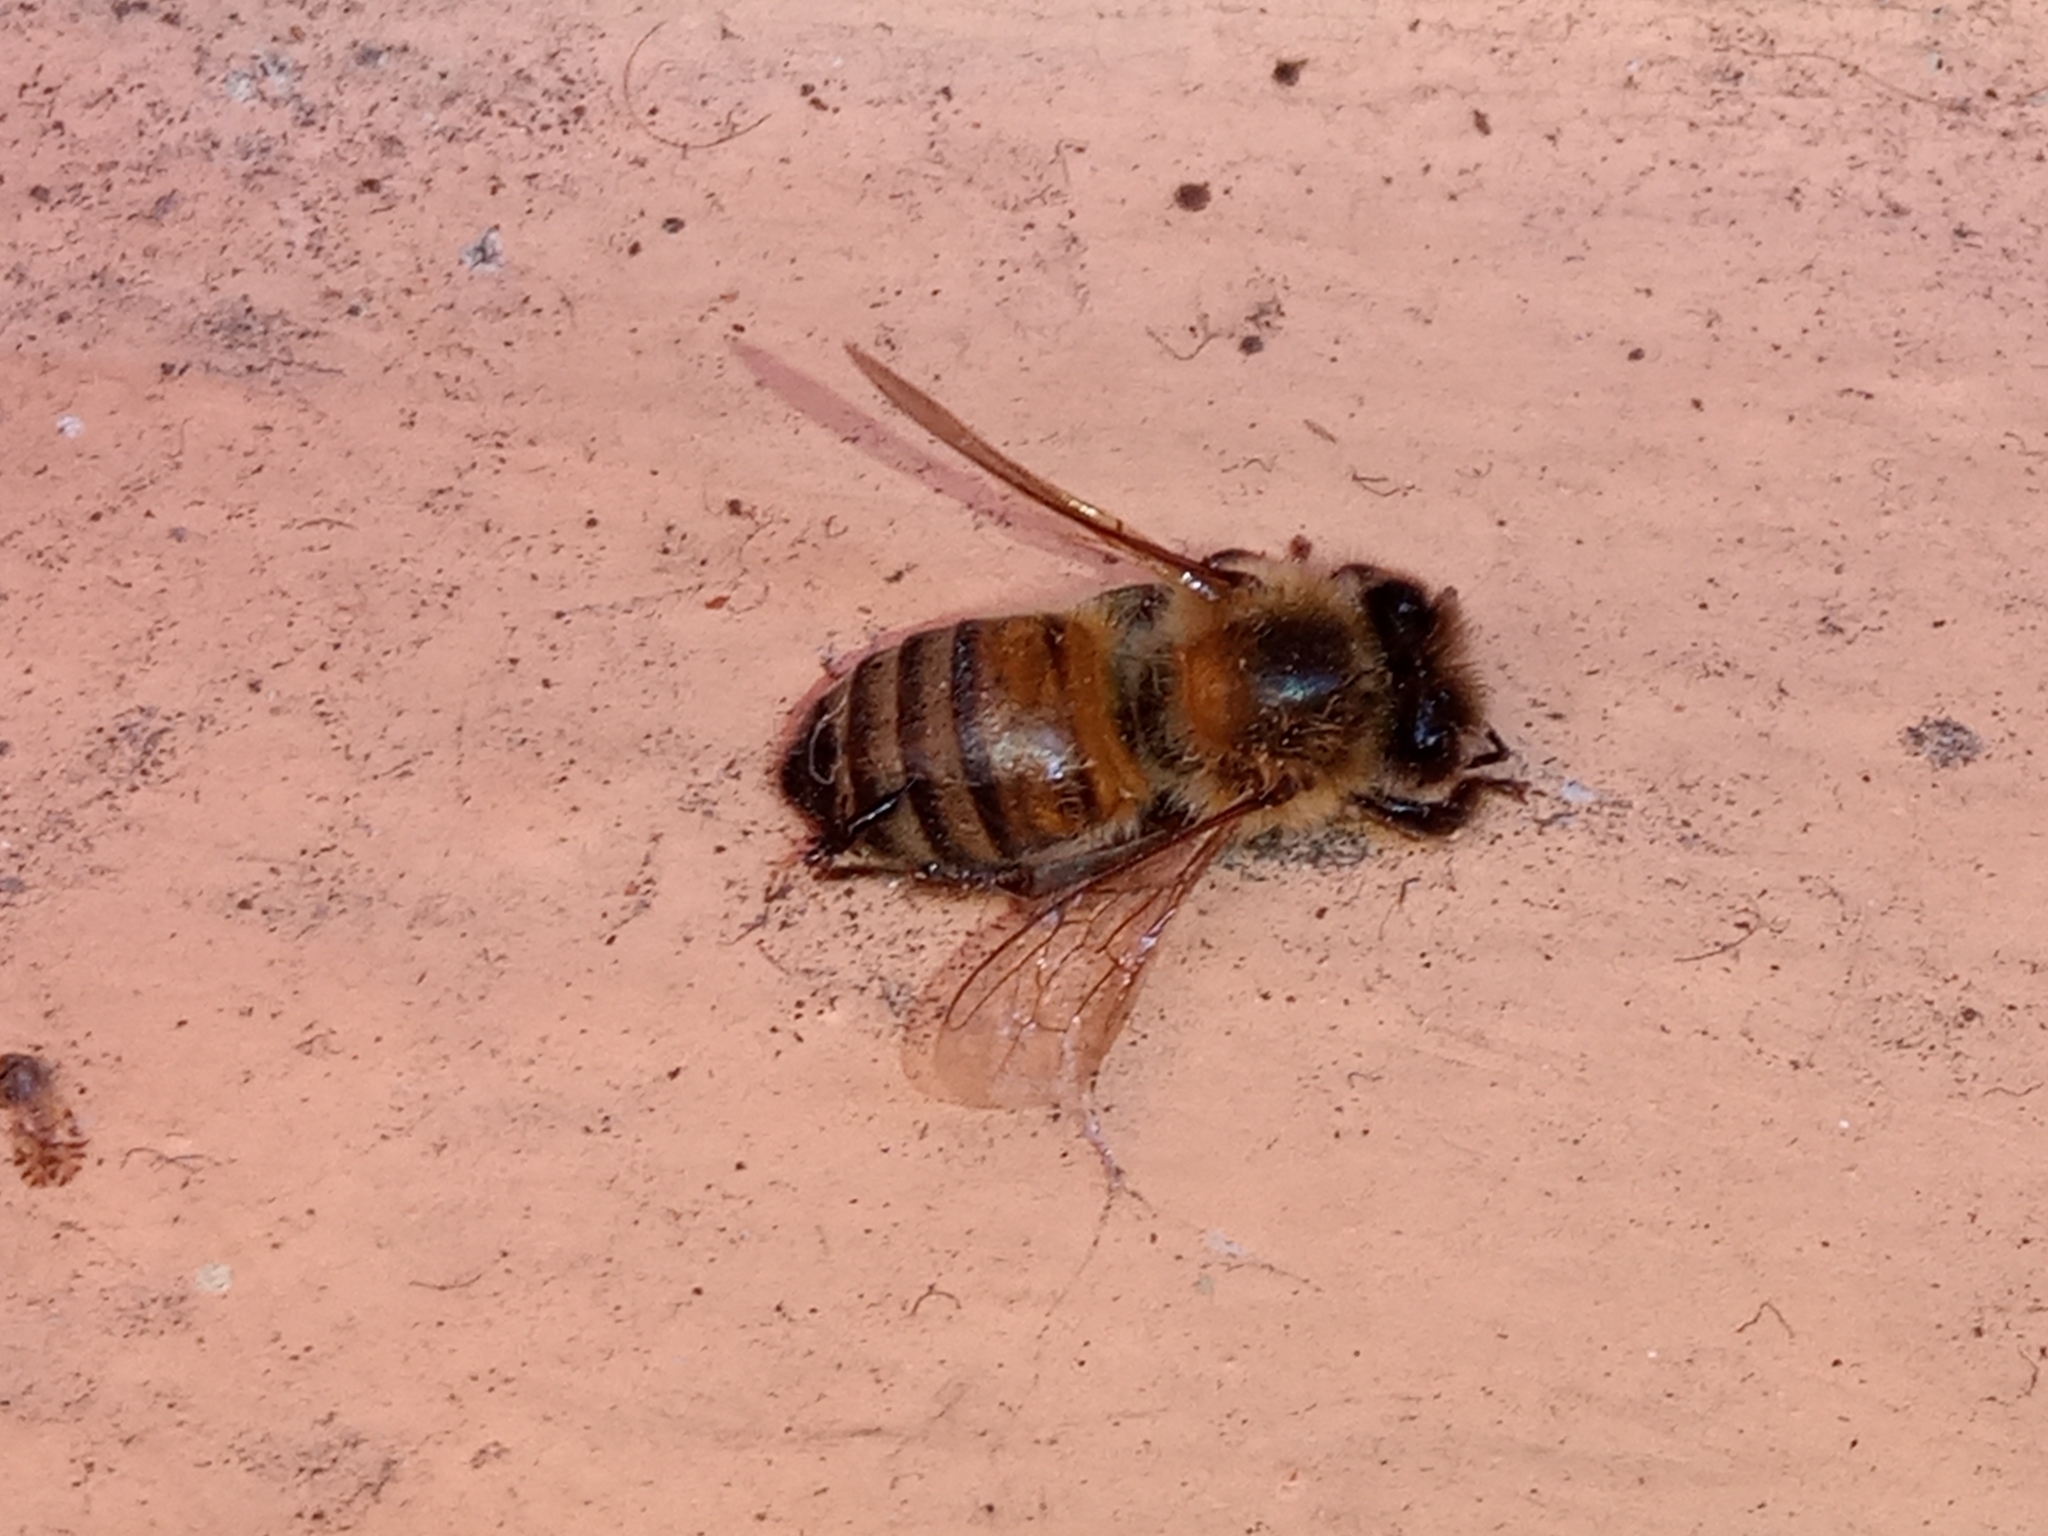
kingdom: Animalia
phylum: Arthropoda
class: Insecta
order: Hymenoptera
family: Apidae
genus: Apis
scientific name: Apis mellifera
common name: Honey bee
